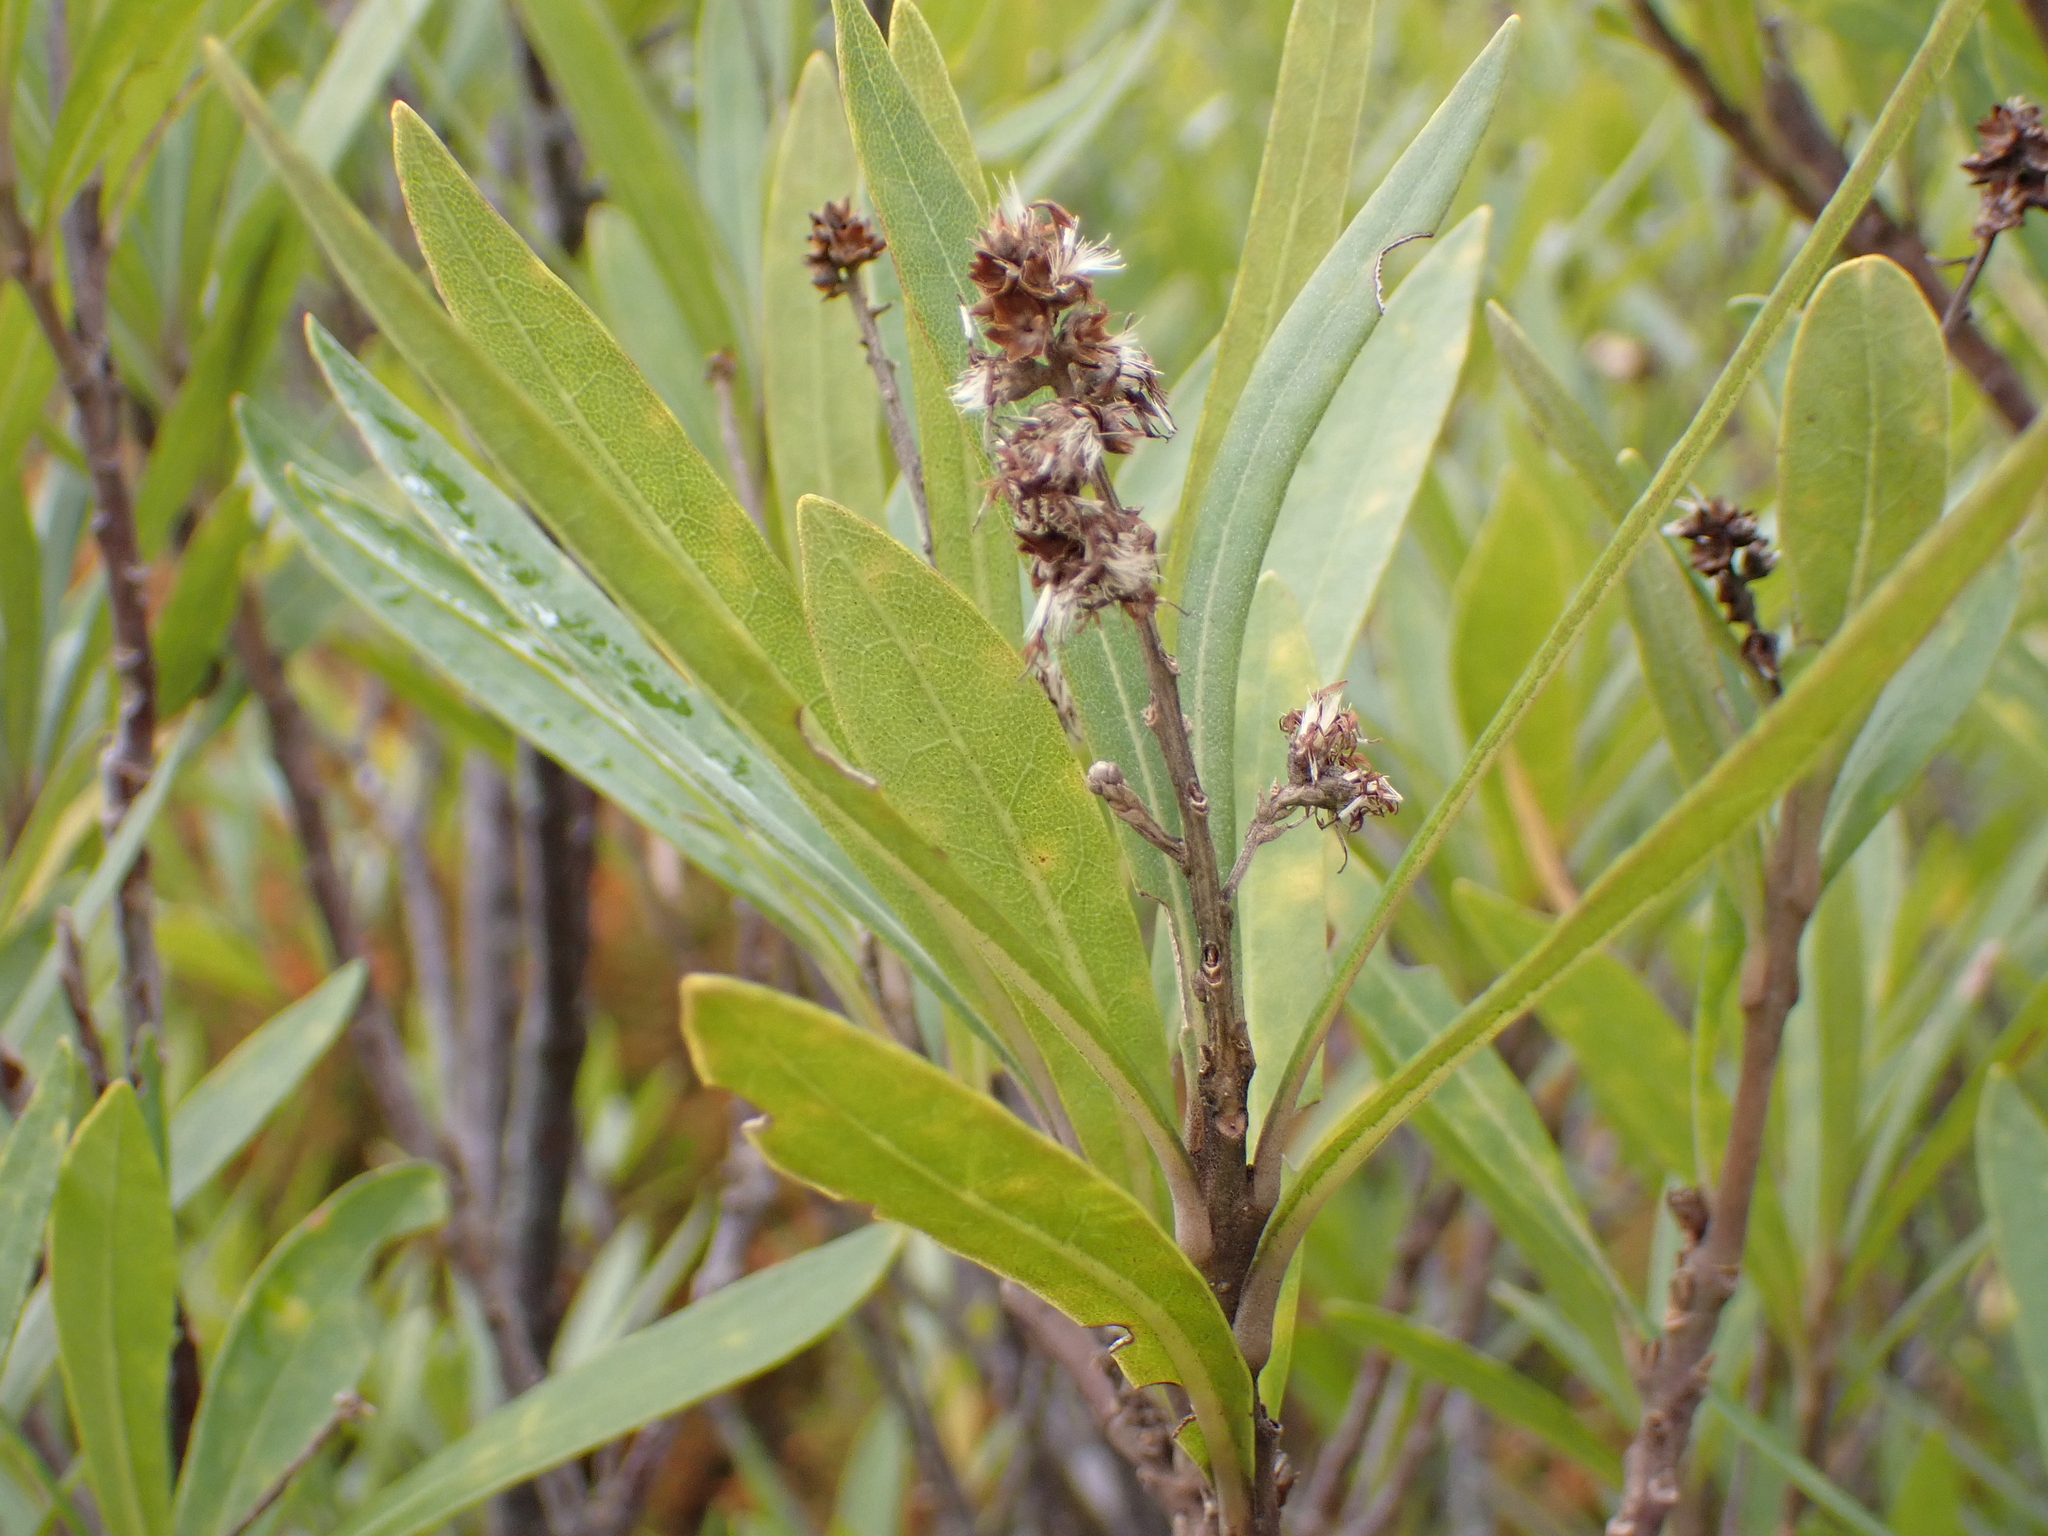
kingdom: Plantae
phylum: Tracheophyta
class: Magnoliopsida
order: Asterales
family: Asteraceae
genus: Brachylaena
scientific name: Brachylaena neriifolia
